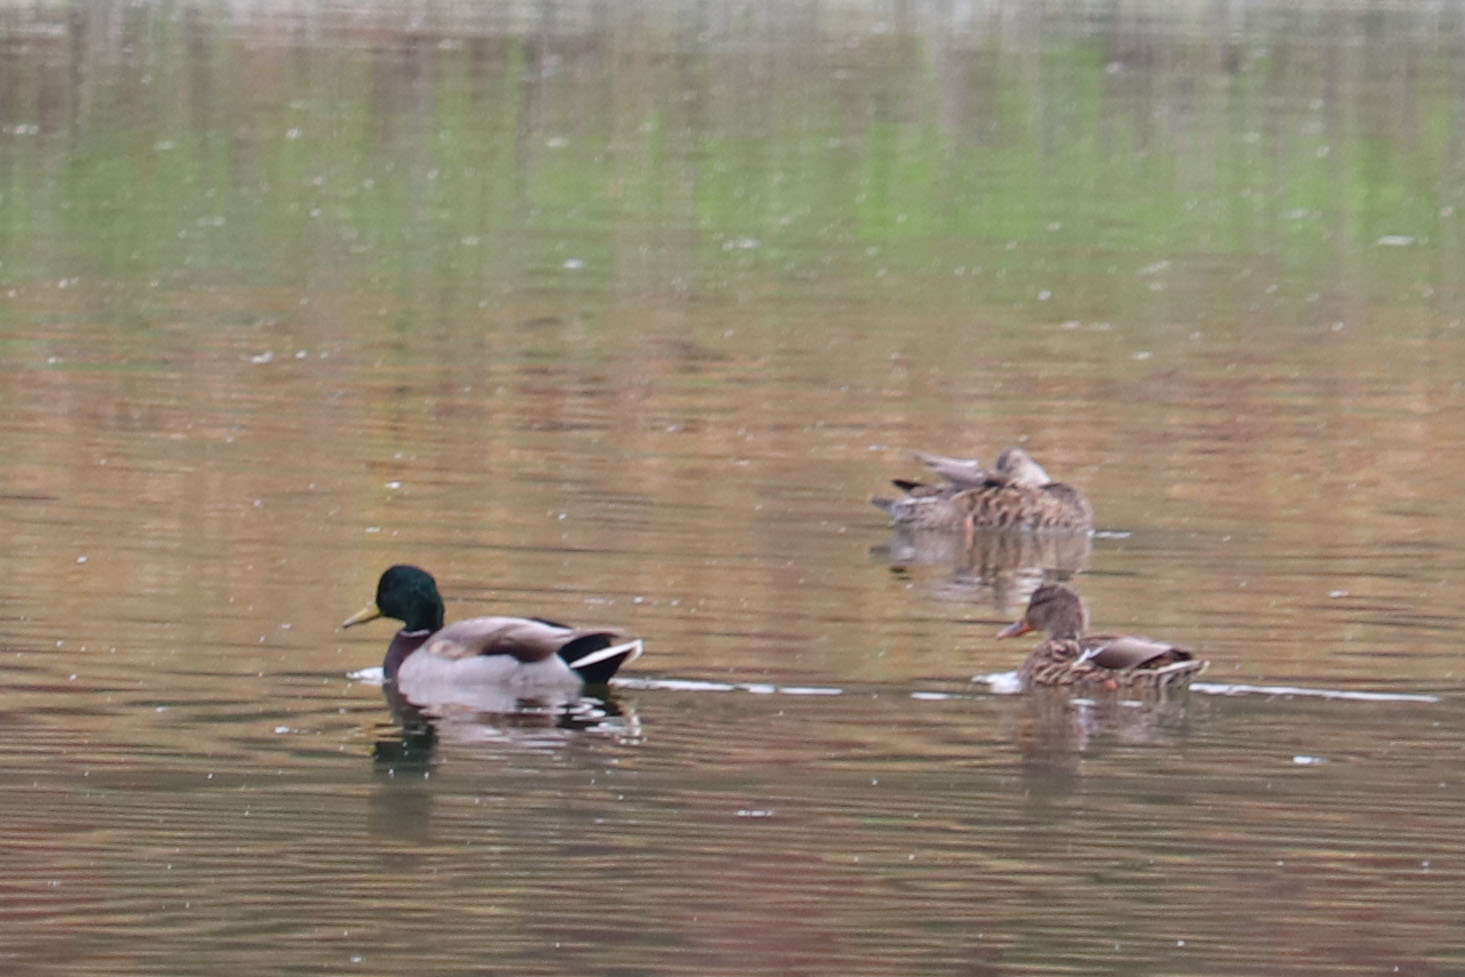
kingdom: Animalia
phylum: Chordata
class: Aves
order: Anseriformes
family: Anatidae
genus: Anas
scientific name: Anas platyrhynchos
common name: Mallard
